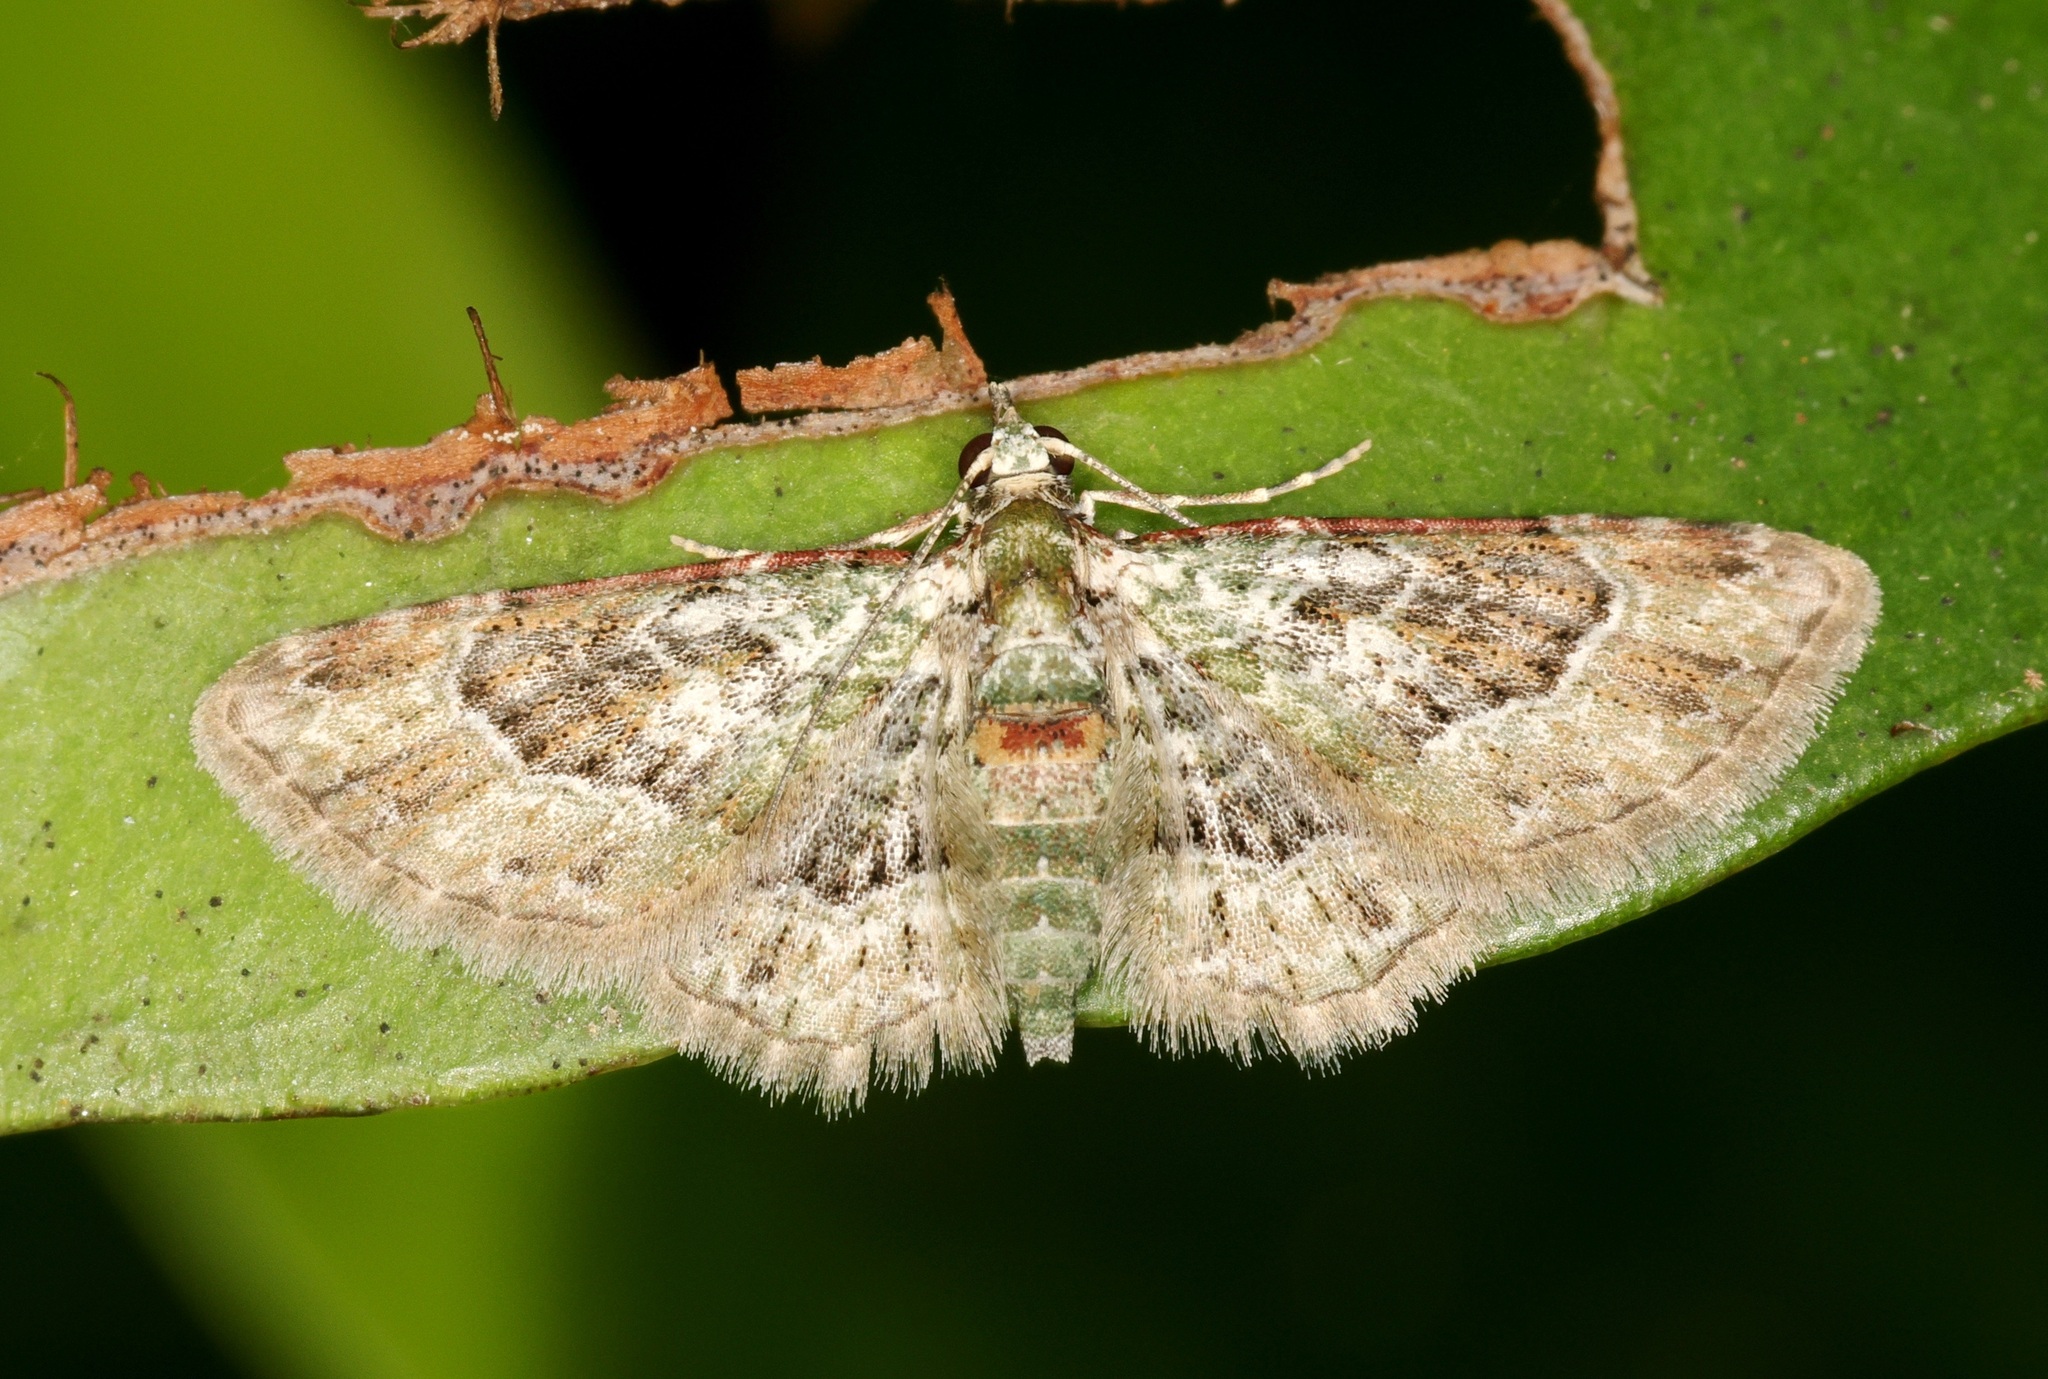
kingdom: Animalia
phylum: Arthropoda
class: Insecta
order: Lepidoptera
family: Geometridae
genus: Calluga
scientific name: Calluga costalis
